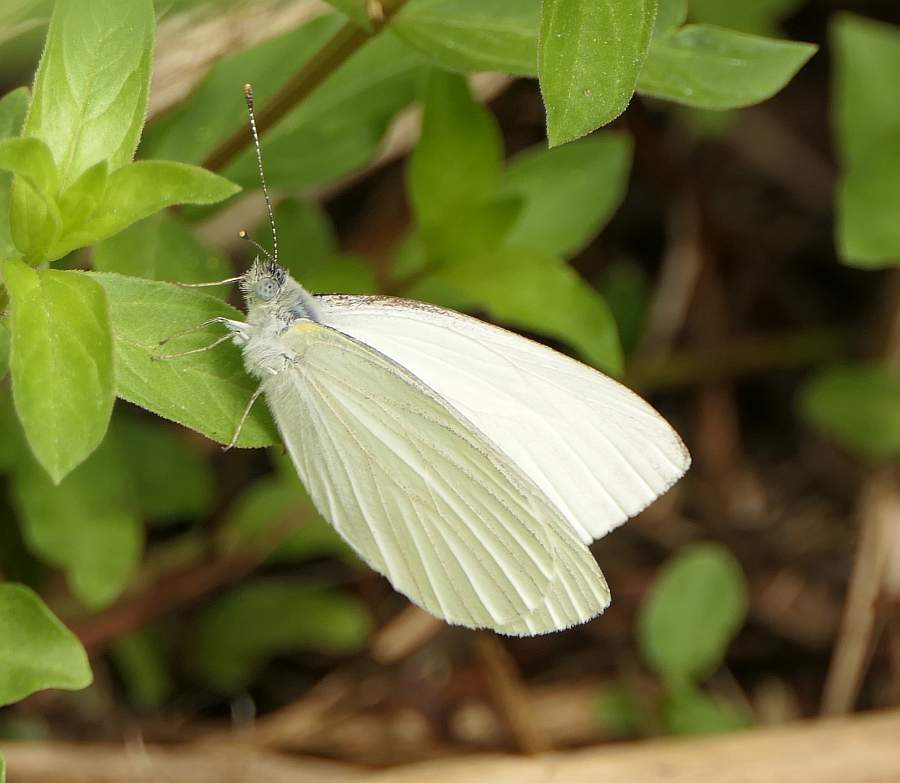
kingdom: Animalia
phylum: Arthropoda
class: Insecta
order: Lepidoptera
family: Pieridae
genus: Pieris
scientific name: Pieris oleracea
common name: Mustard white
